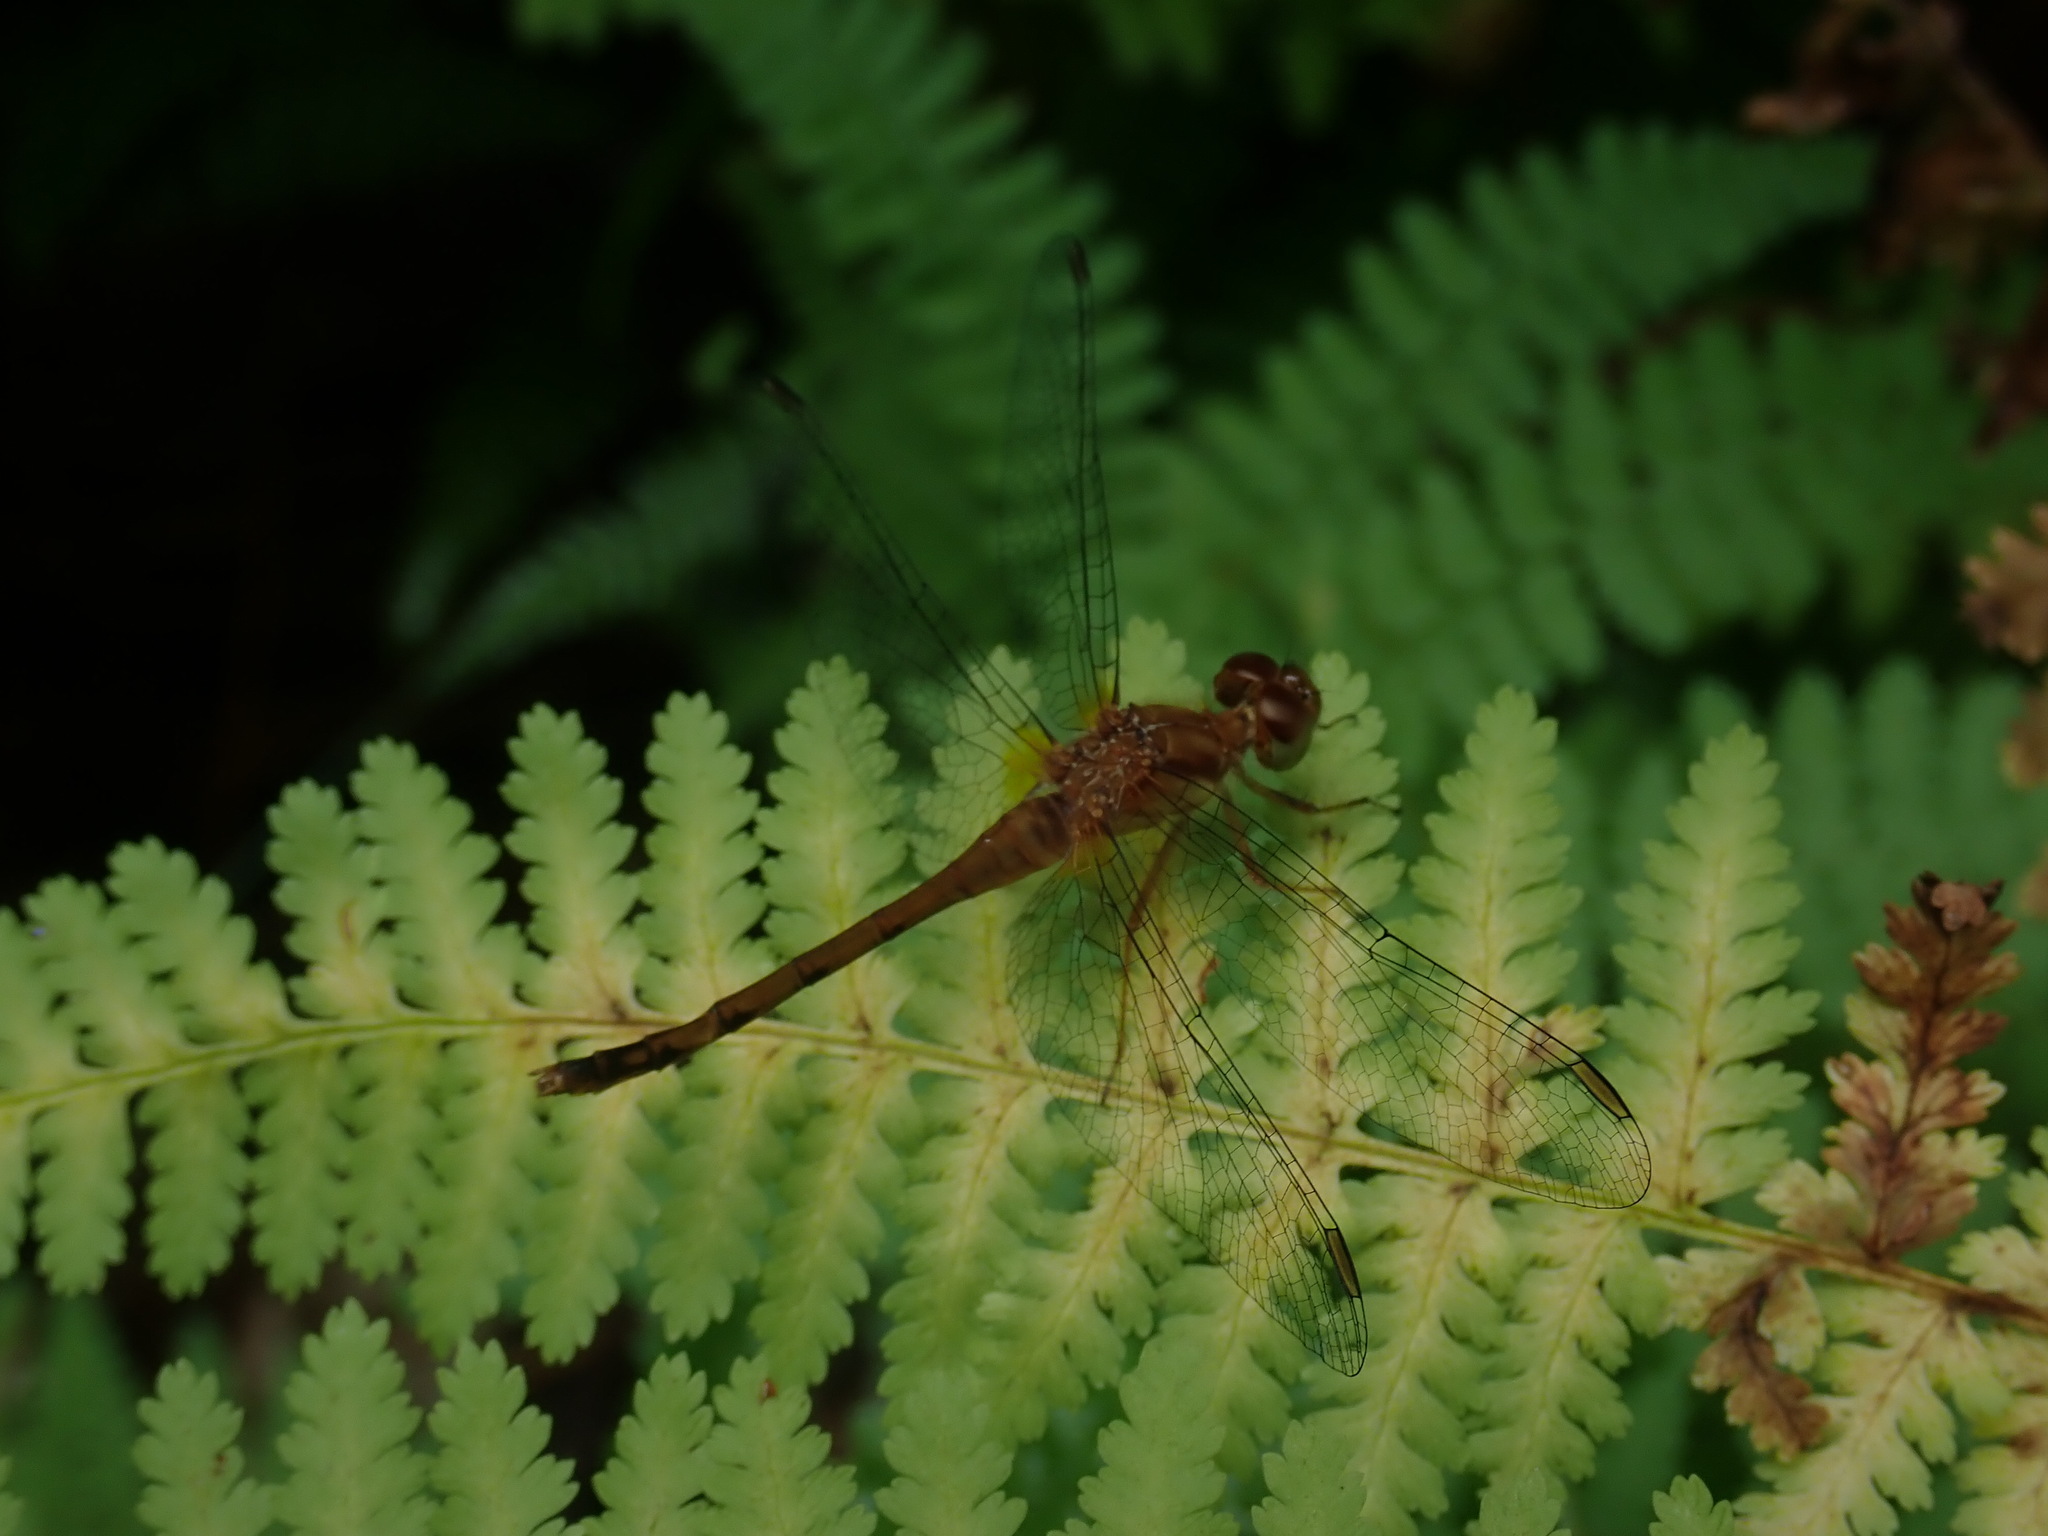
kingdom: Animalia
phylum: Arthropoda
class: Insecta
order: Odonata
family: Libellulidae
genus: Sympetrum
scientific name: Sympetrum vicinum
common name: Autumn meadowhawk
